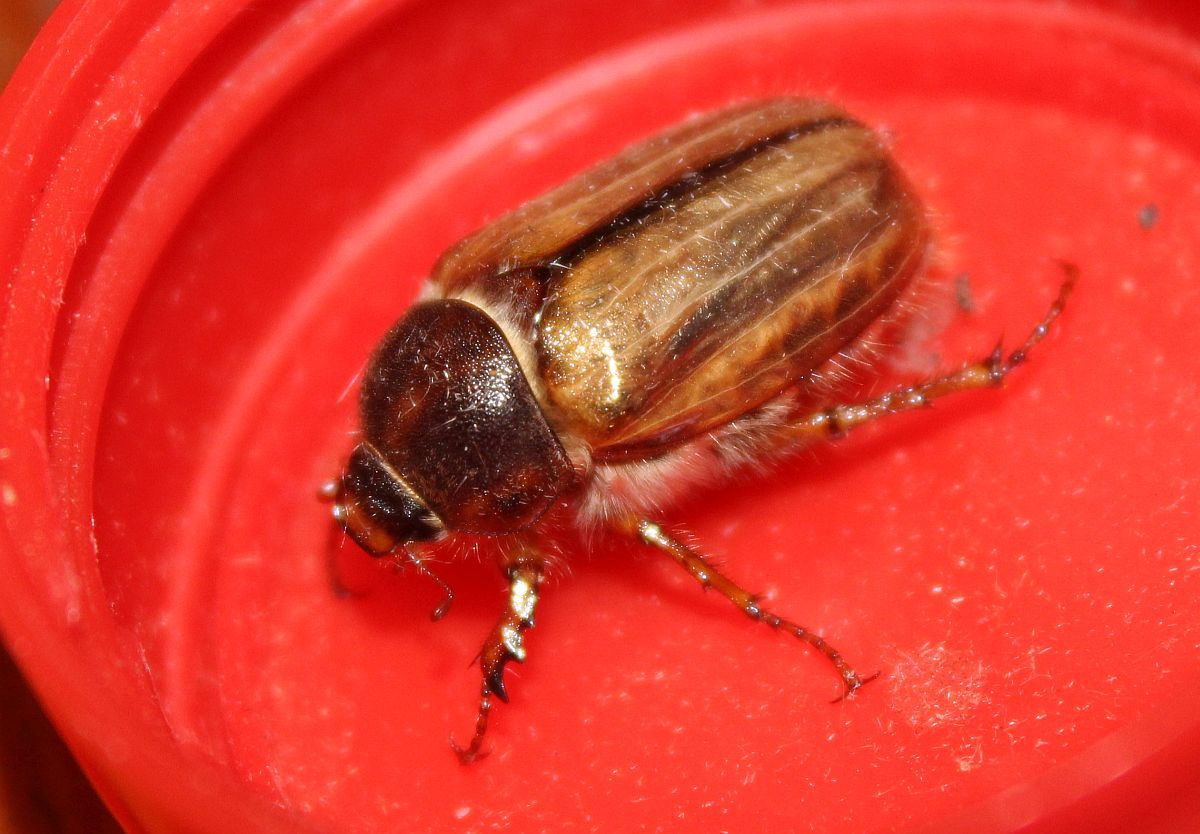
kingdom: Animalia
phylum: Arthropoda
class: Insecta
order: Coleoptera
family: Scarabaeidae
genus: Amphimallon
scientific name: Amphimallon solstitiale
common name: Summer chafer
